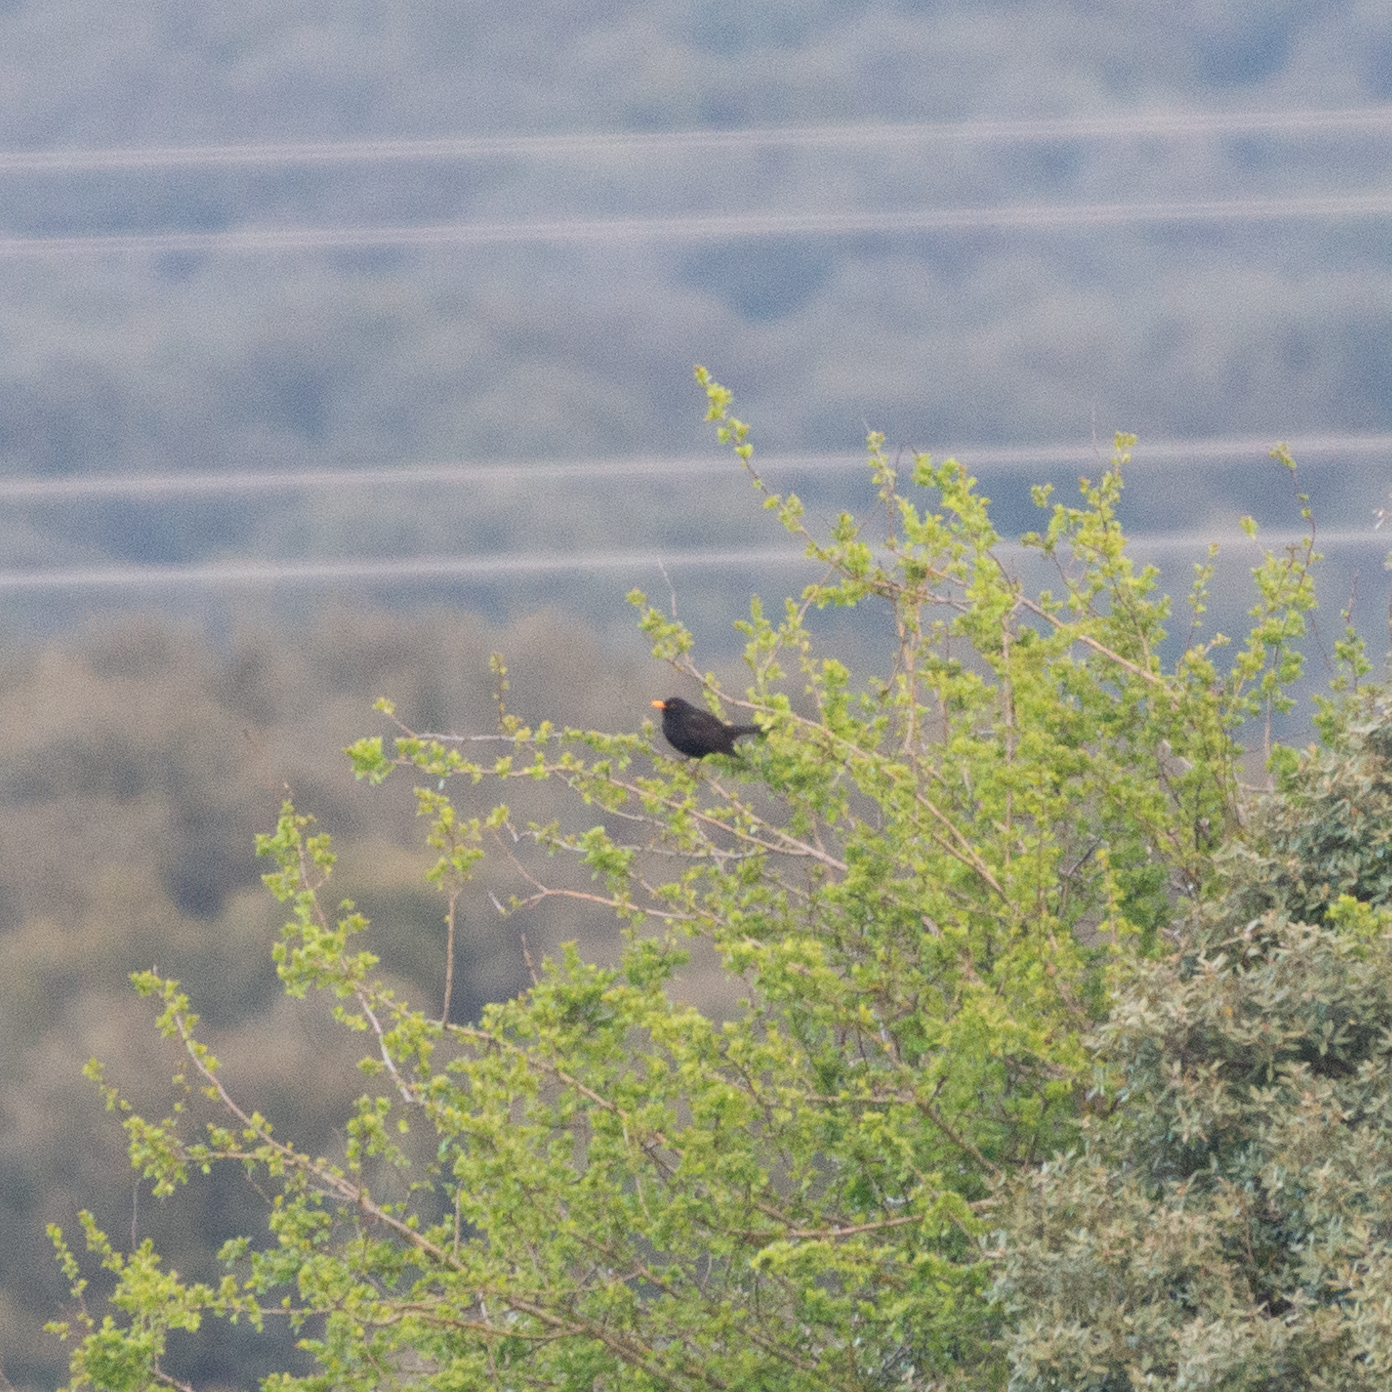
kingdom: Animalia
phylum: Chordata
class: Aves
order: Passeriformes
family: Turdidae
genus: Turdus
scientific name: Turdus merula
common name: Common blackbird
